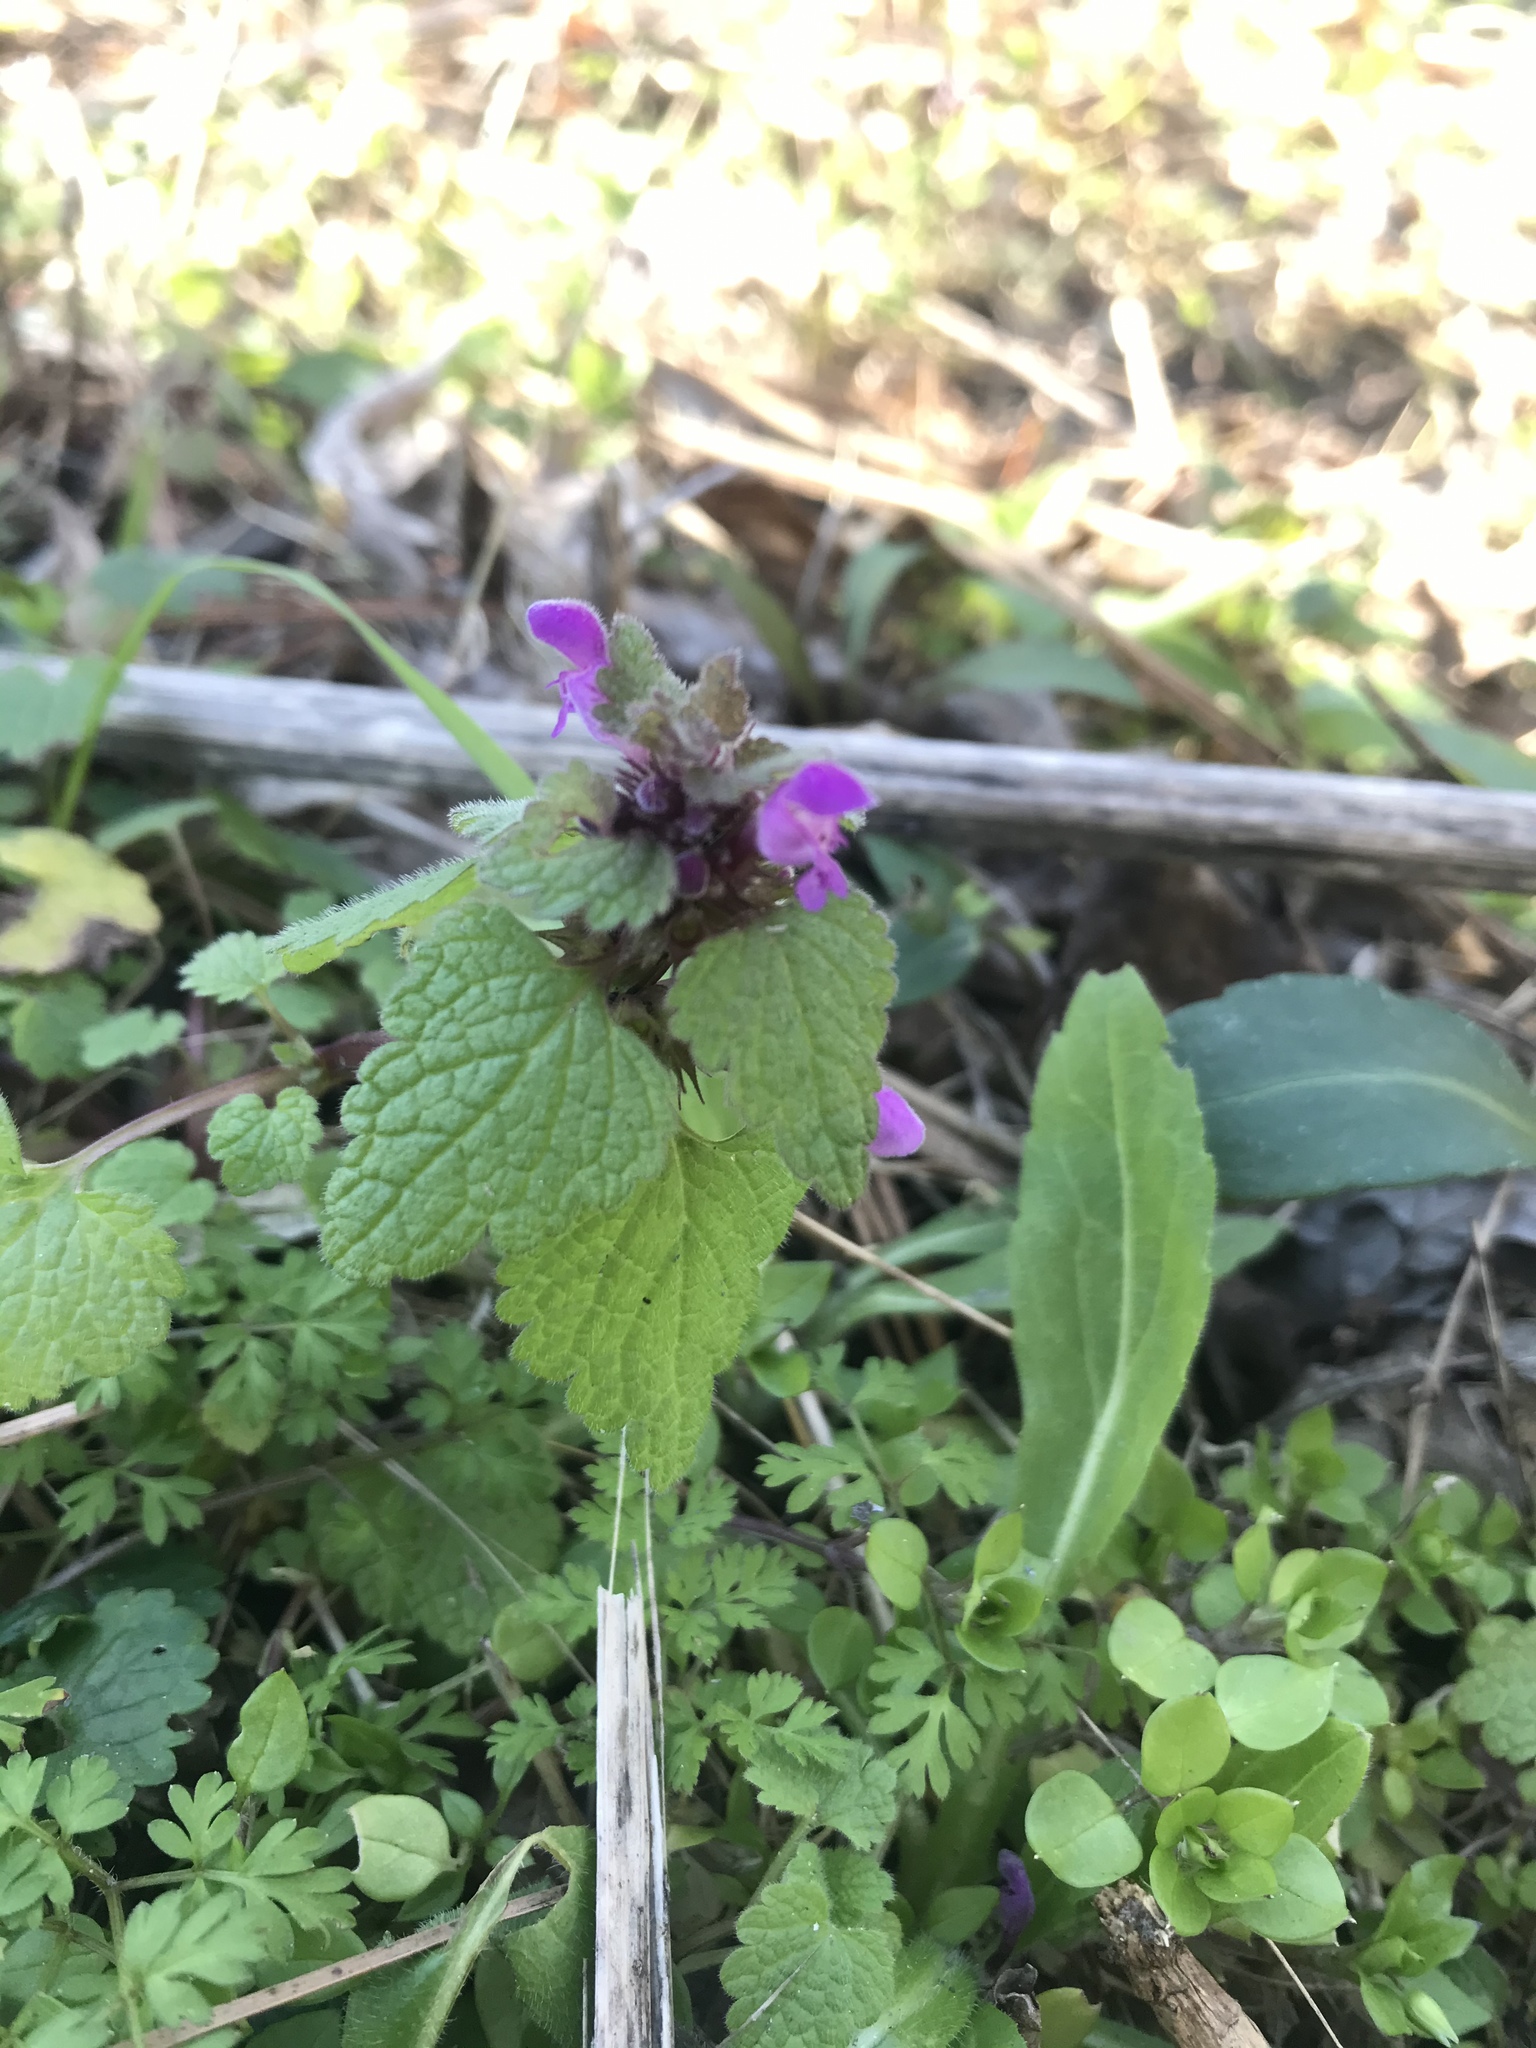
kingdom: Plantae
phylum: Tracheophyta
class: Magnoliopsida
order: Lamiales
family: Lamiaceae
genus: Lamium
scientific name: Lamium purpureum
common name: Red dead-nettle
